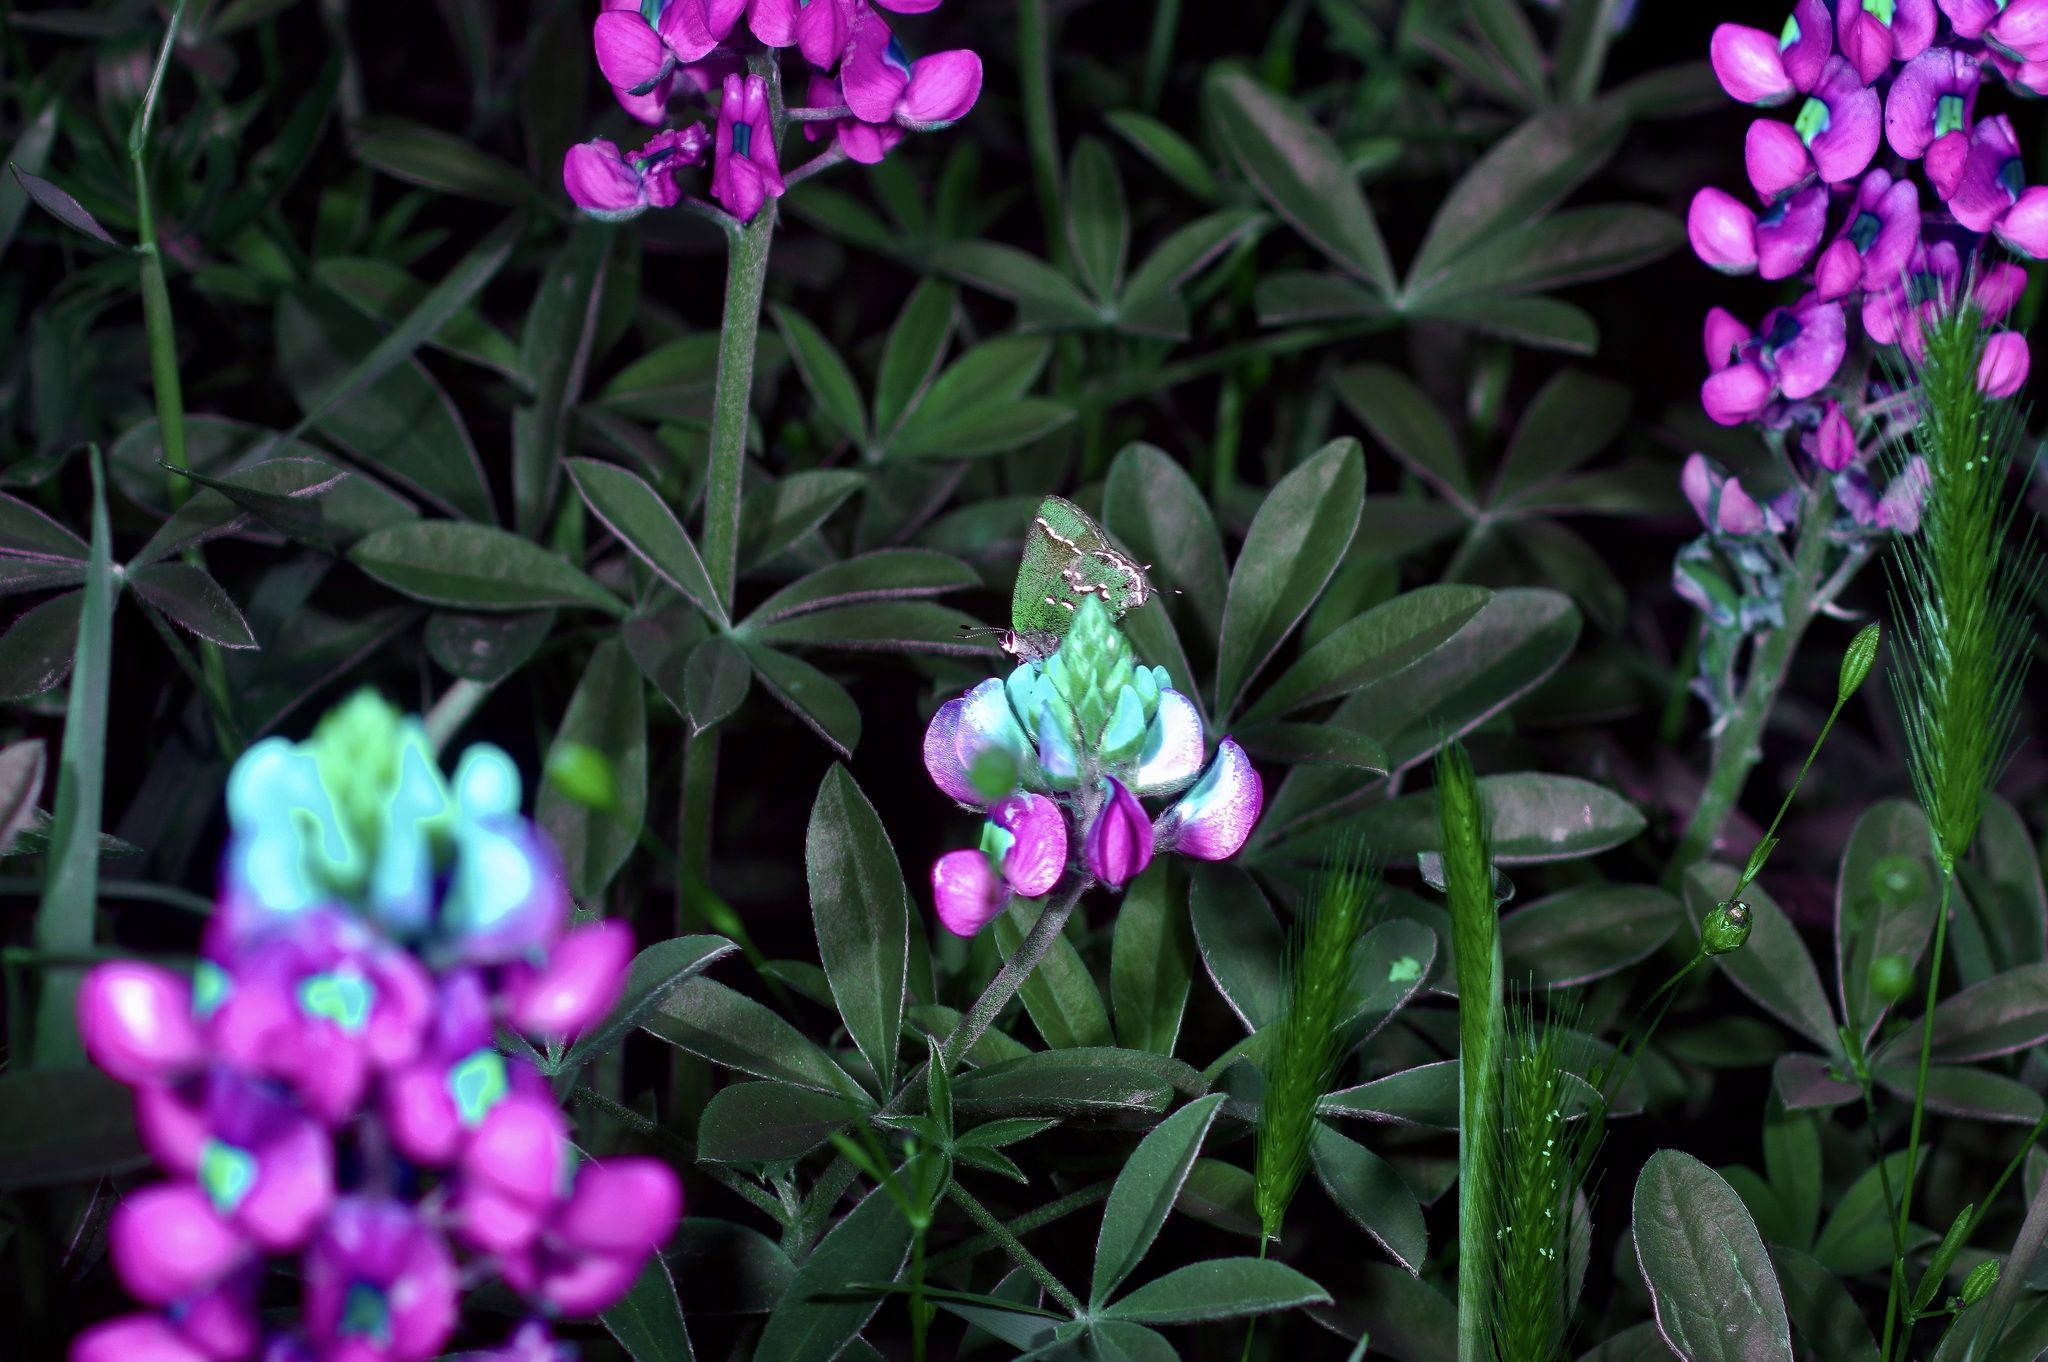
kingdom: Animalia
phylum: Arthropoda
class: Insecta
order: Lepidoptera
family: Lycaenidae
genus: Mitoura
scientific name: Mitoura gryneus
